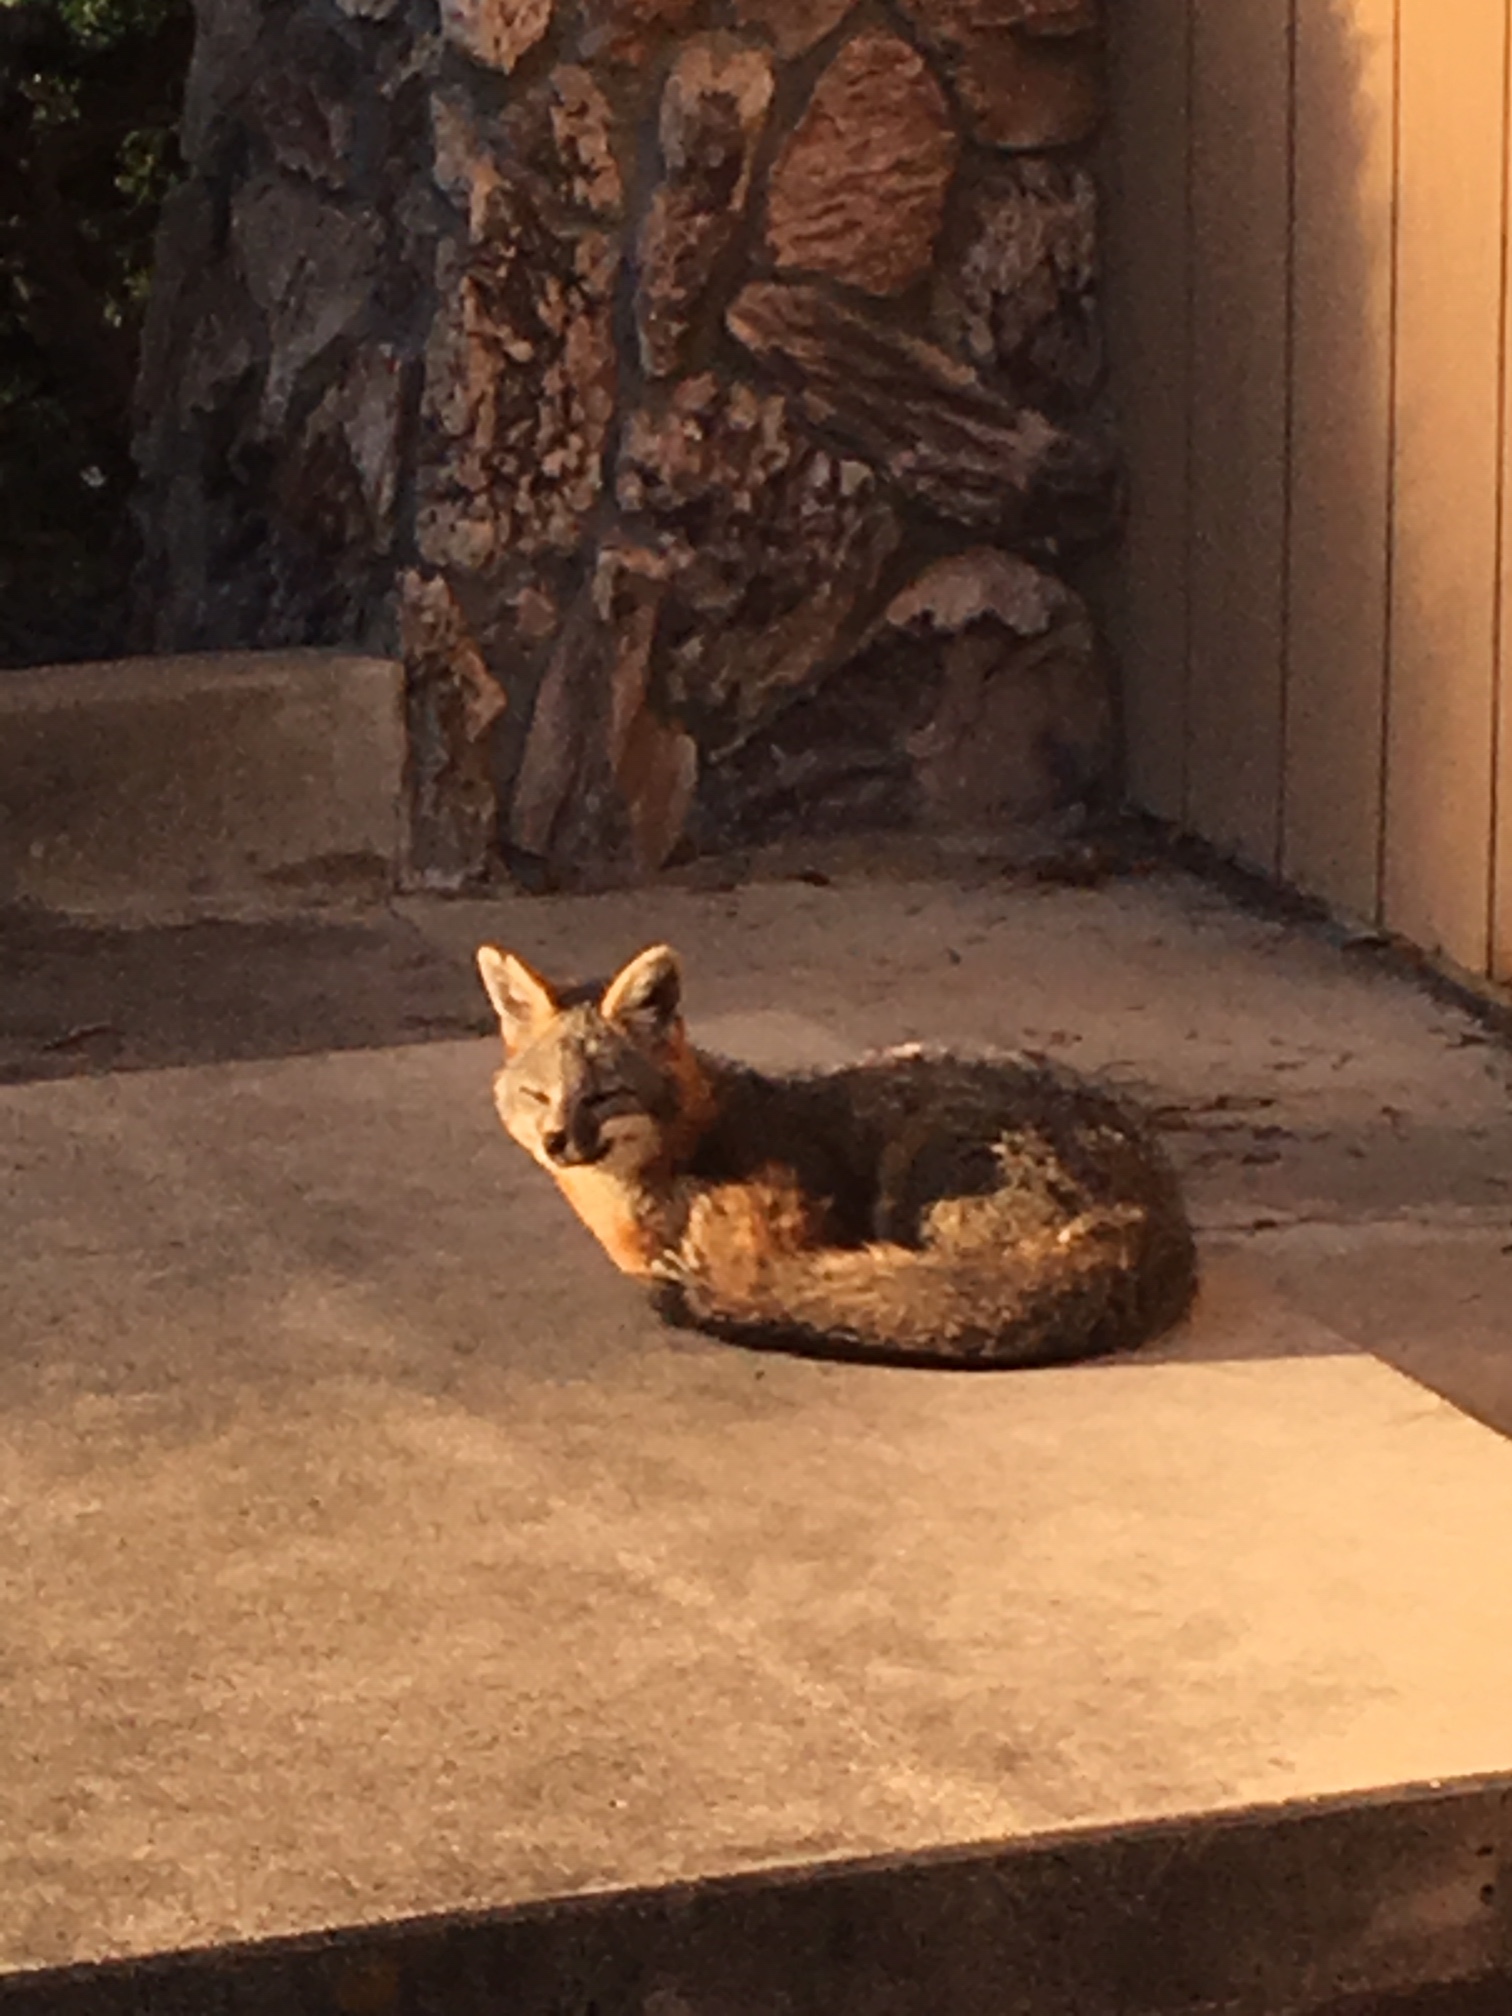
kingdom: Animalia
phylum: Chordata
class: Mammalia
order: Carnivora
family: Canidae
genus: Urocyon
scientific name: Urocyon cinereoargenteus
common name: Gray fox
